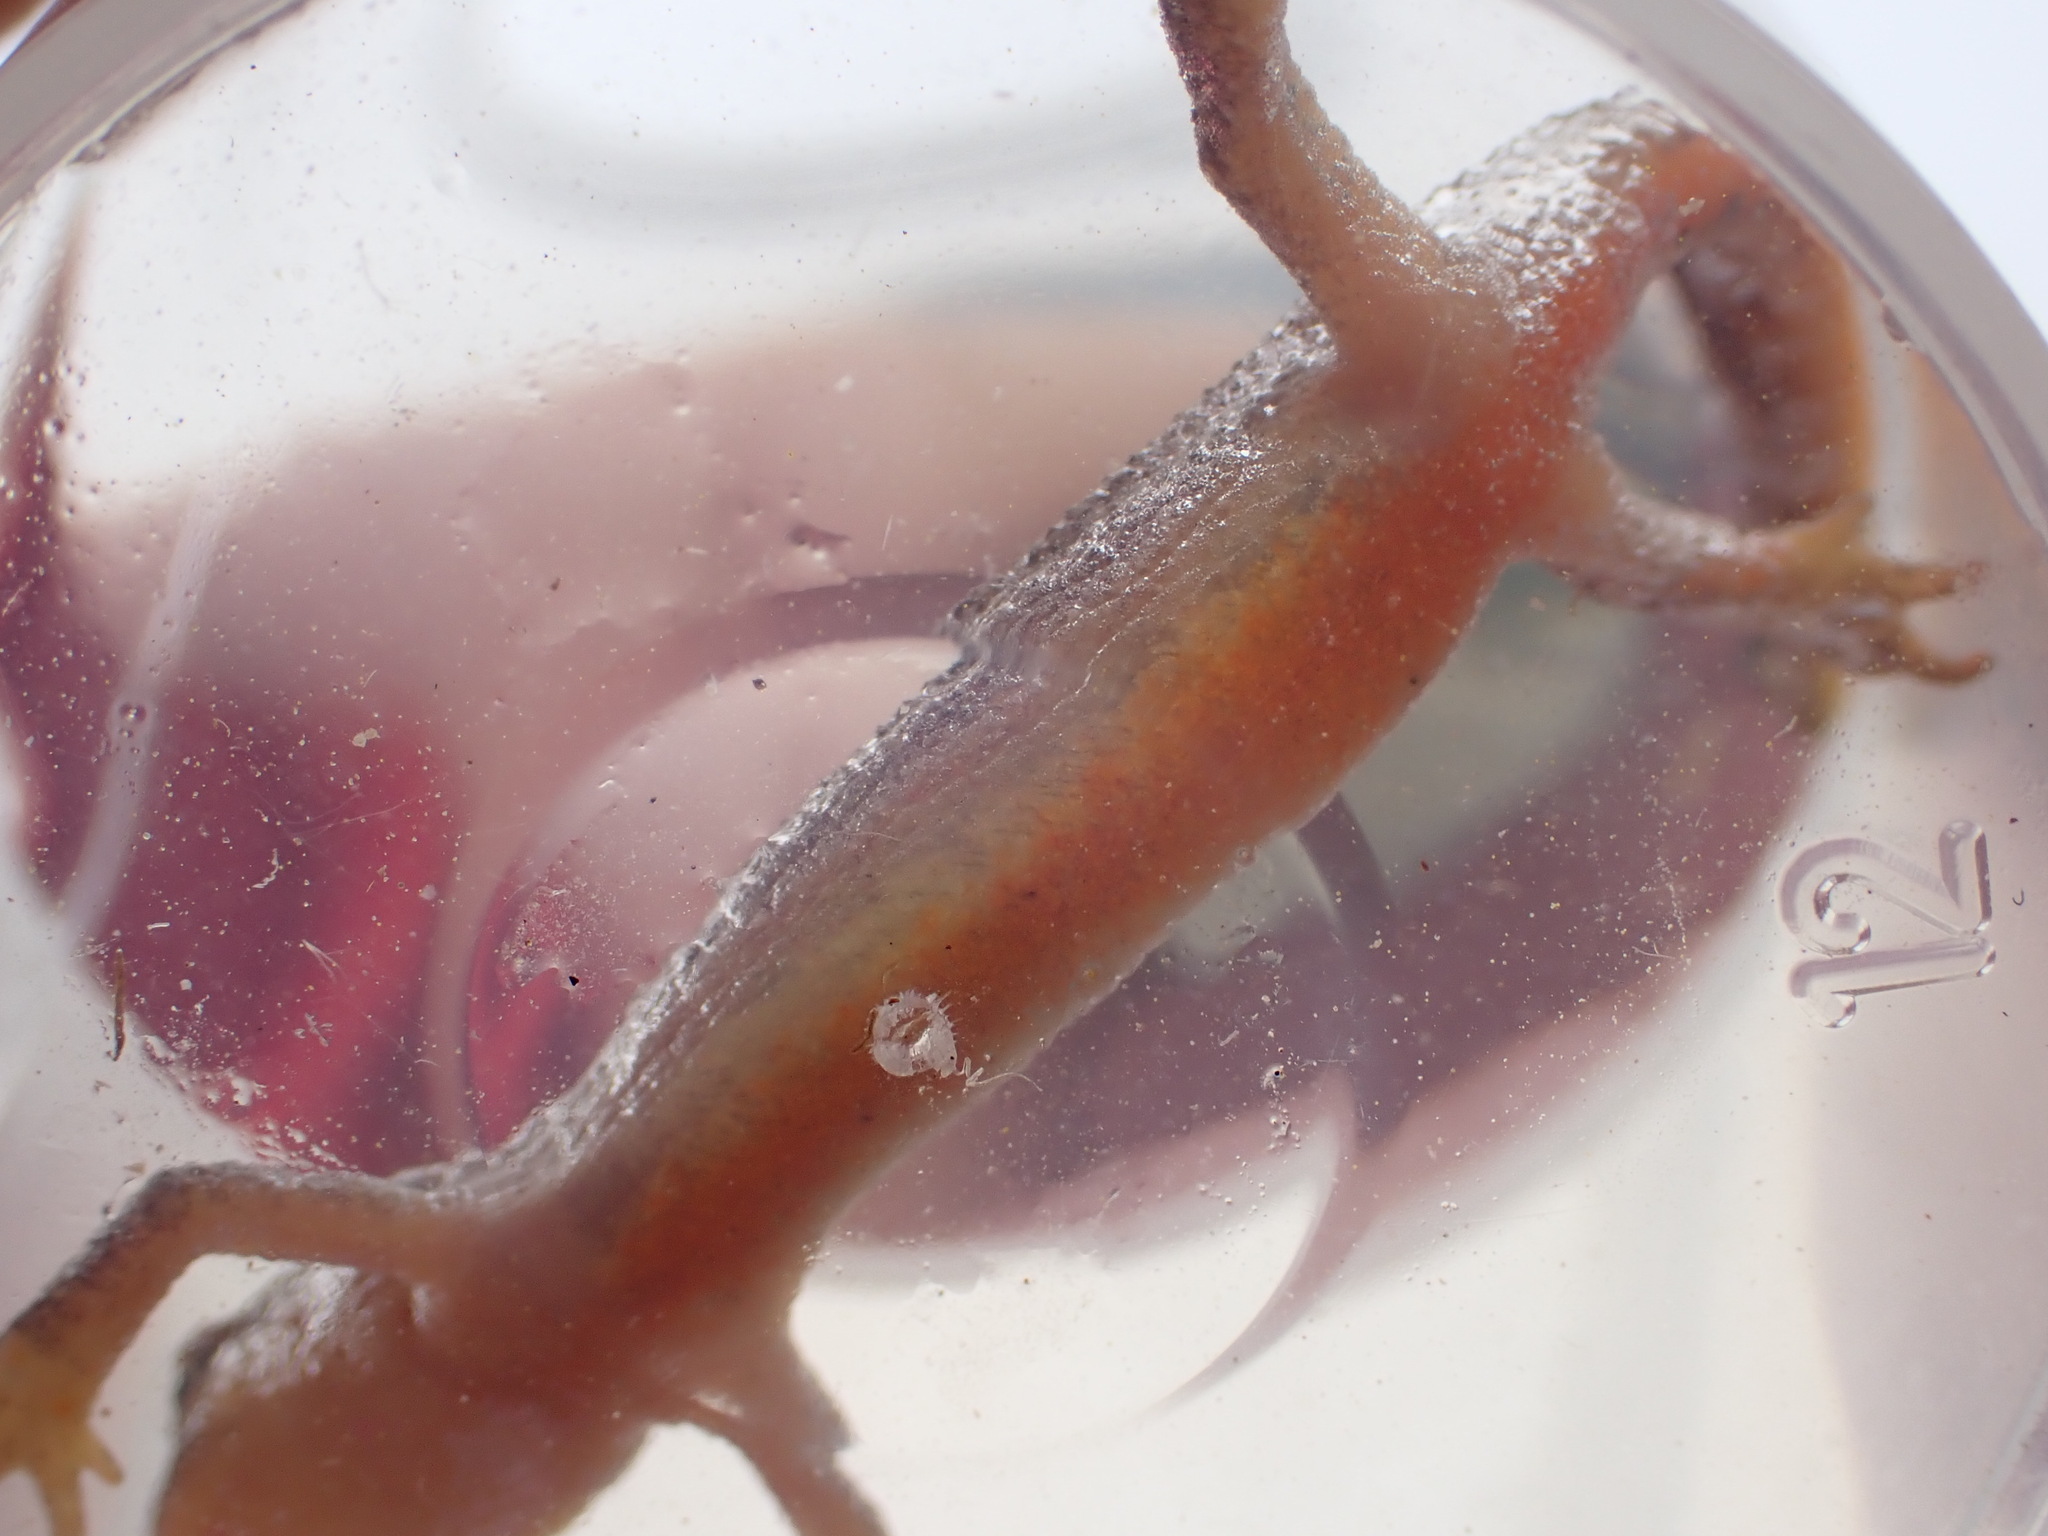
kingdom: Animalia
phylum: Chordata
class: Amphibia
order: Caudata
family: Salamandridae
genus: Lissotriton
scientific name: Lissotriton helveticus
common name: Palmate newt
